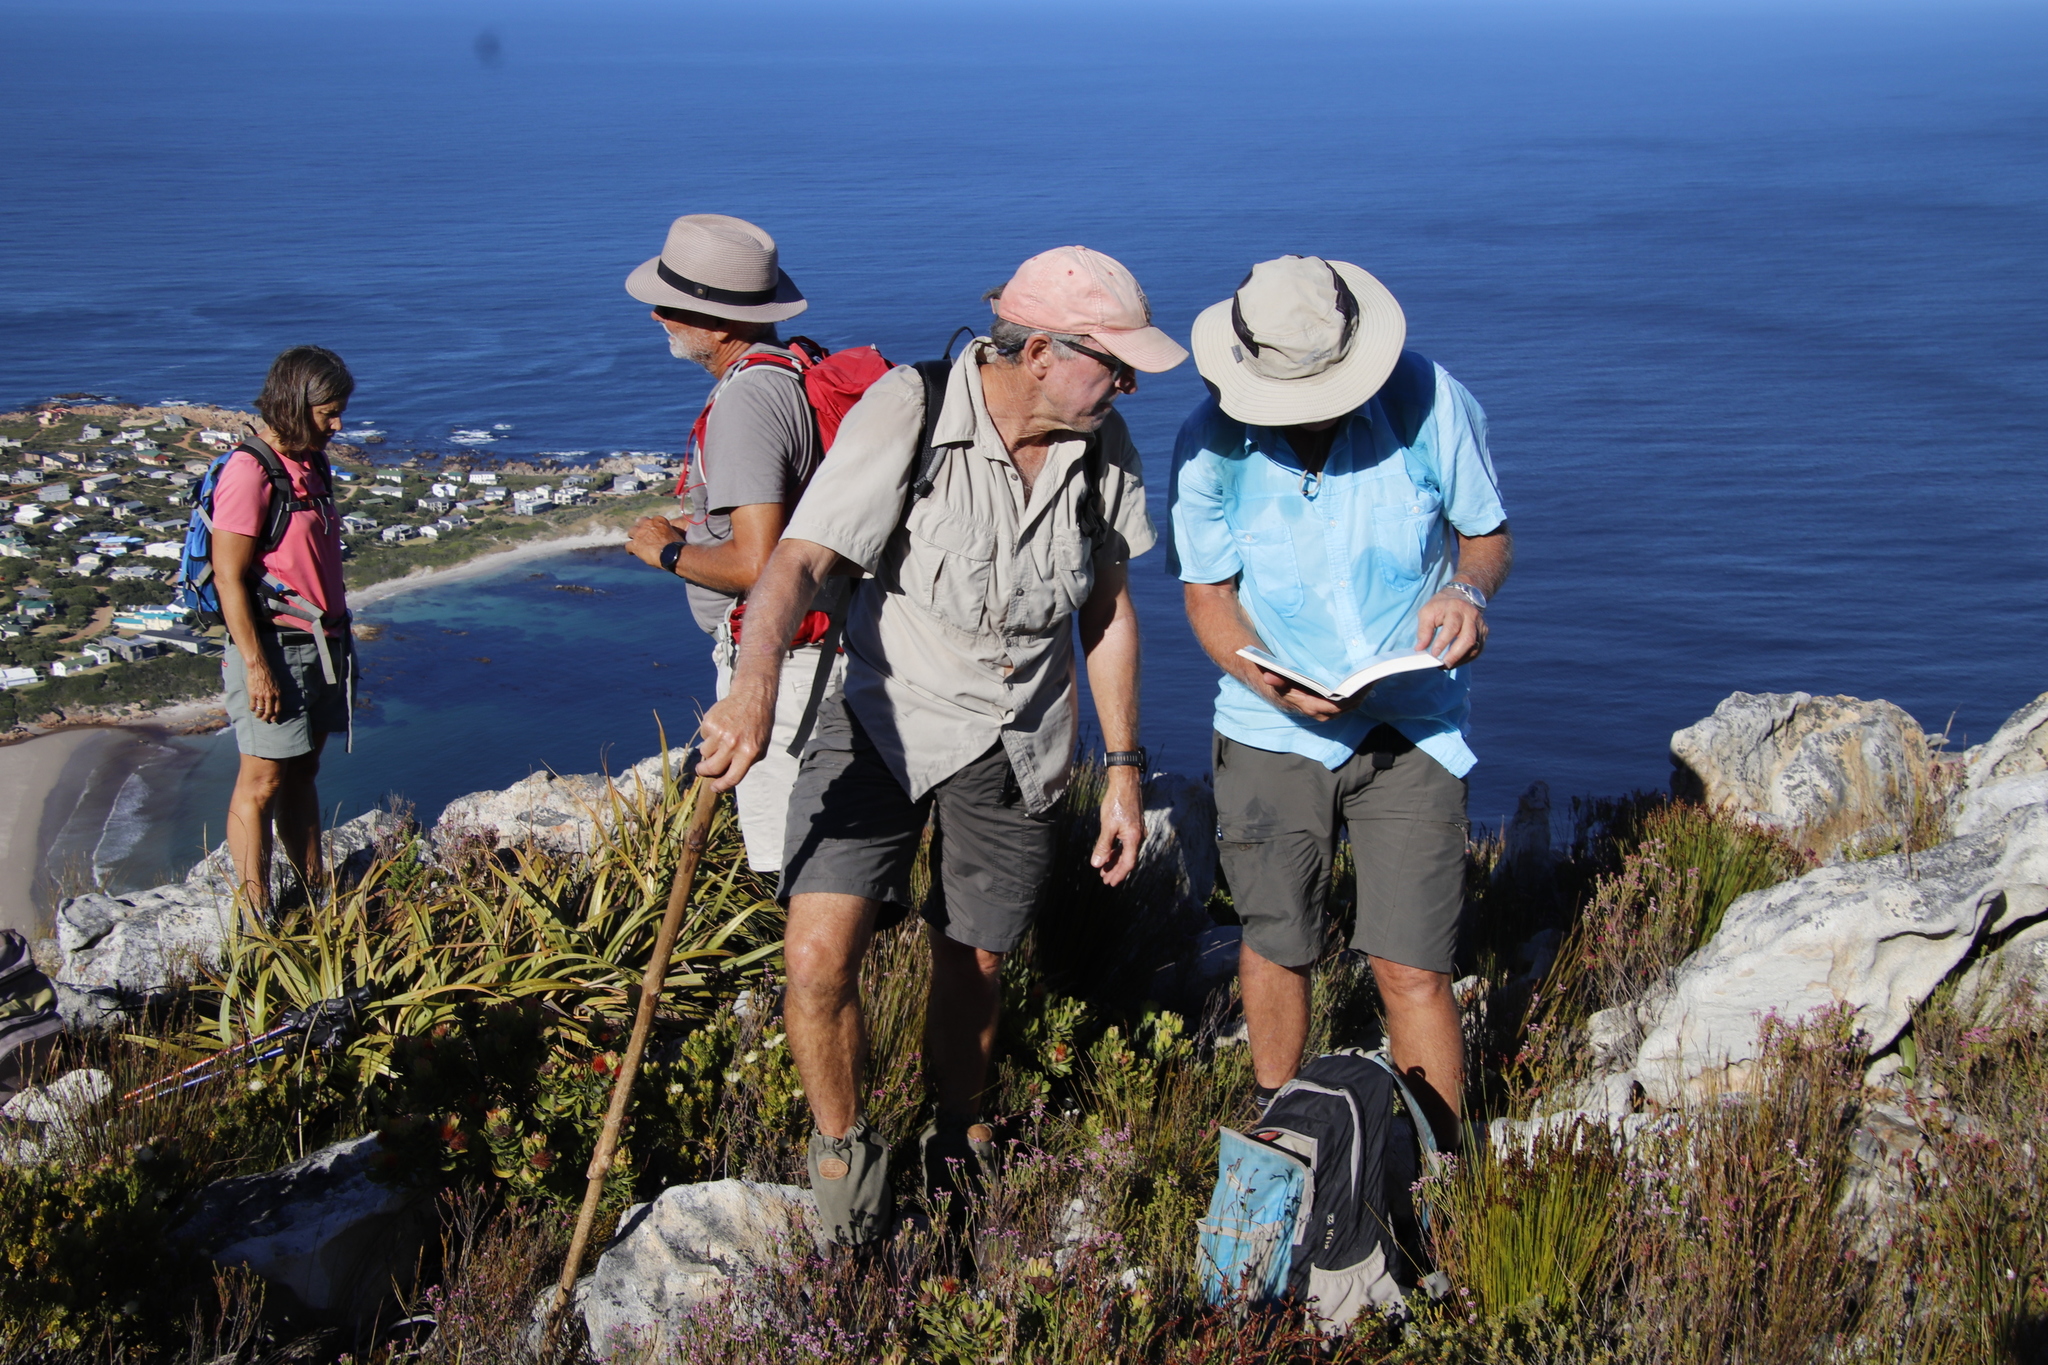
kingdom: Plantae
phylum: Tracheophyta
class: Liliopsida
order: Poales
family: Cyperaceae
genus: Tetraria
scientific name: Tetraria thermalis
